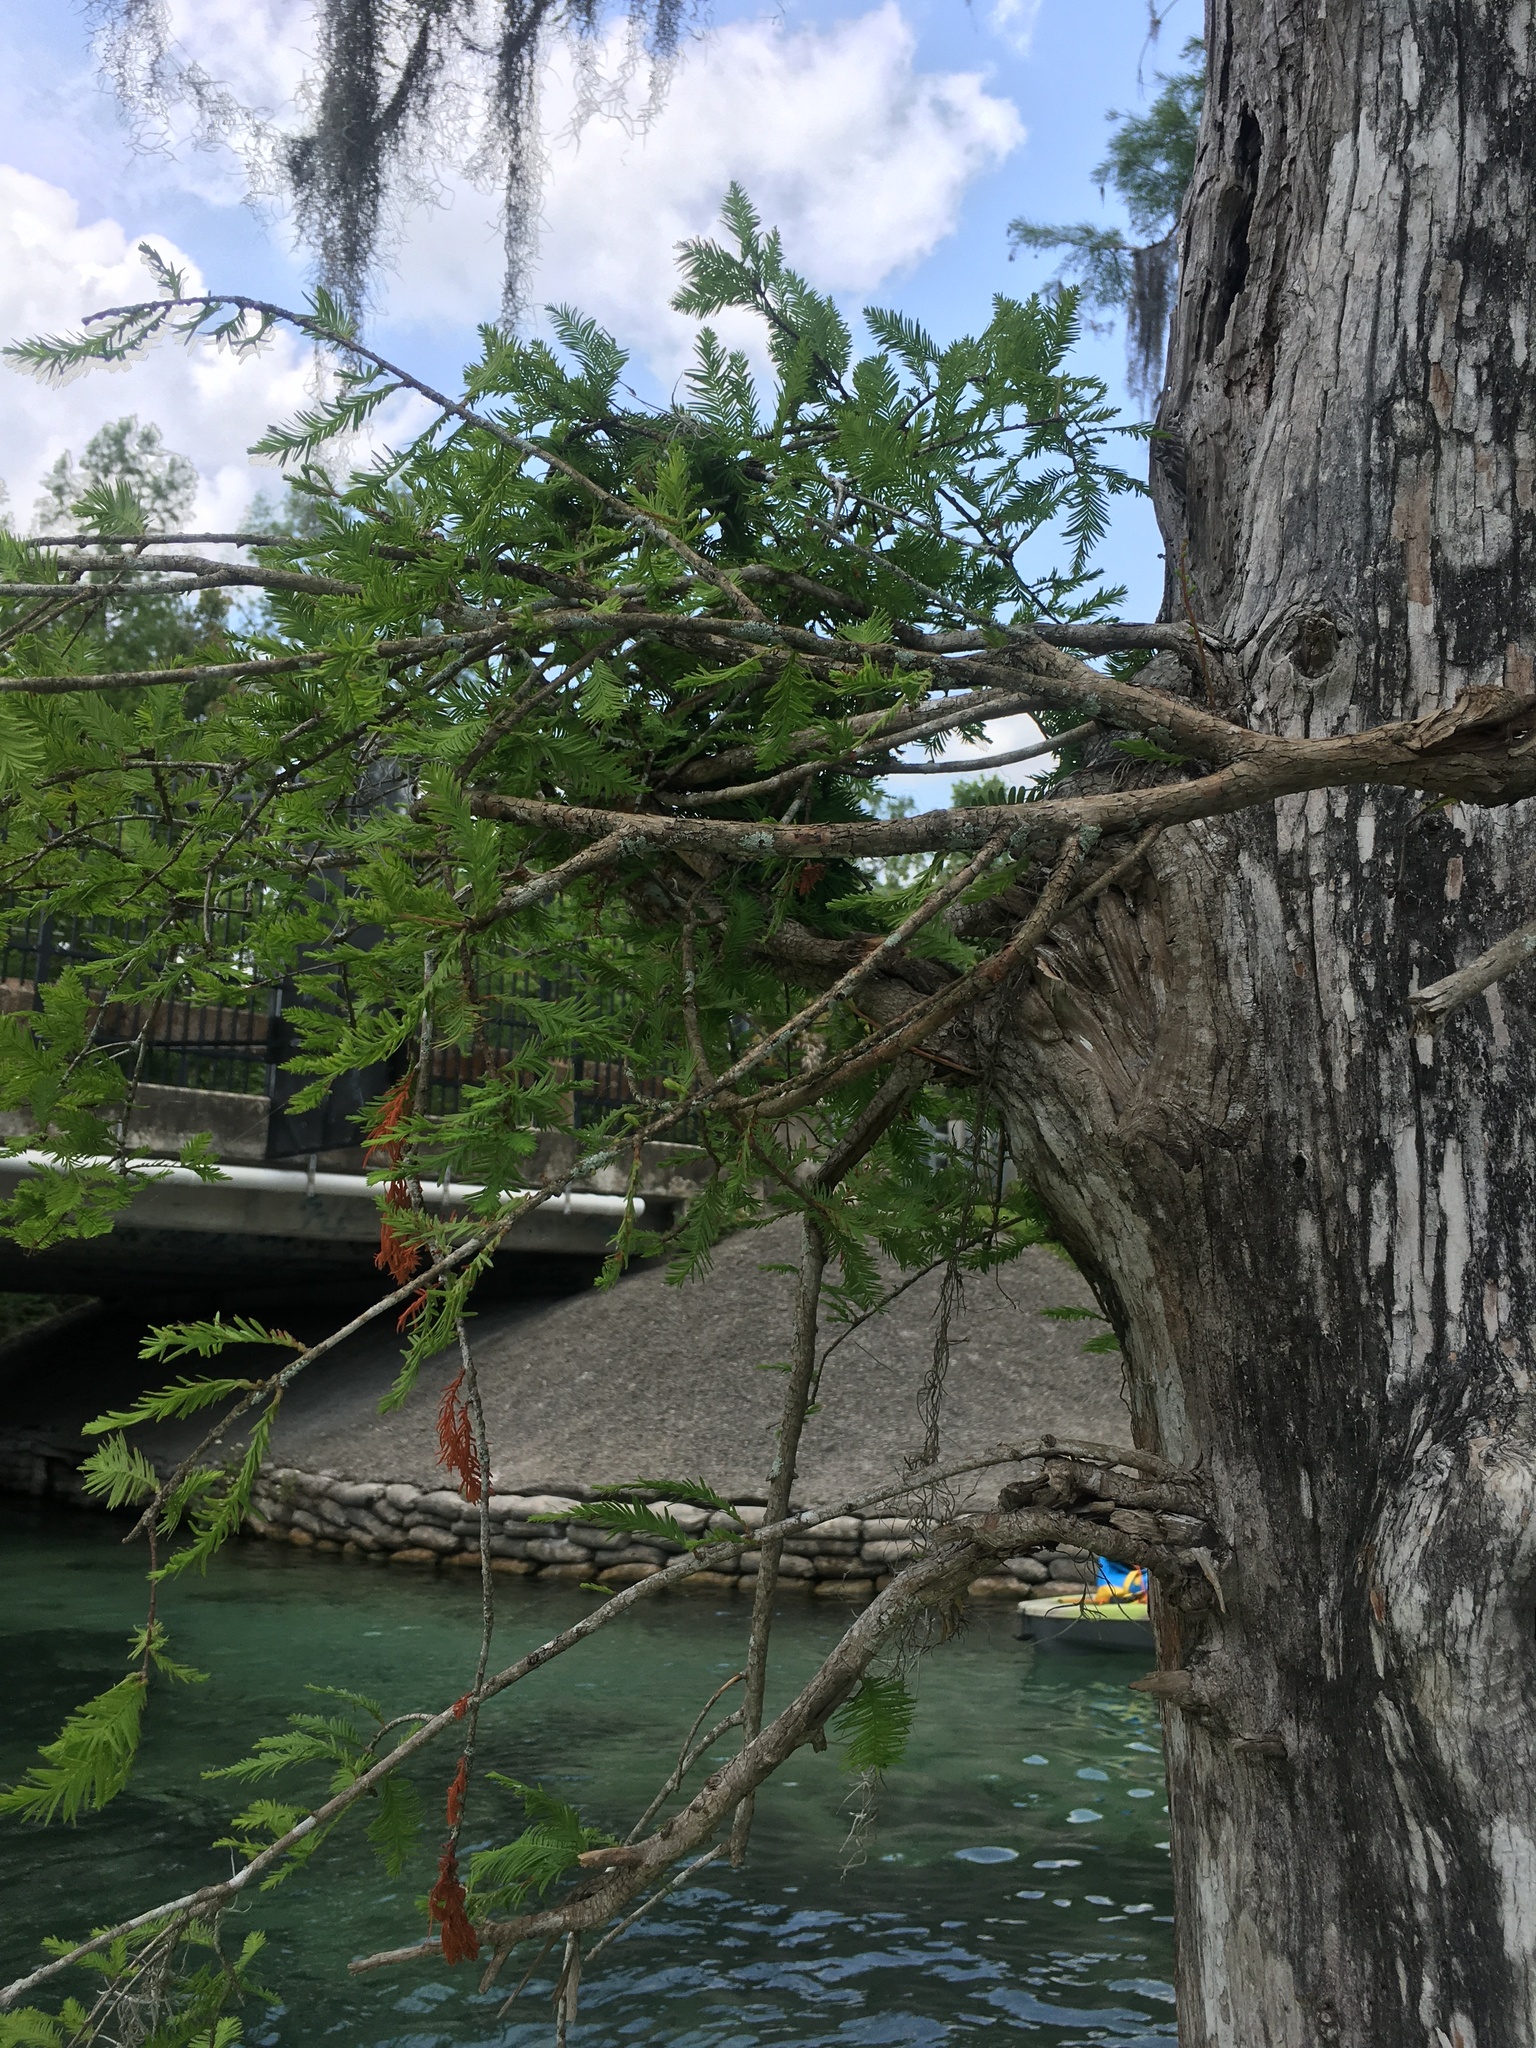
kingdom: Plantae
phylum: Tracheophyta
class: Pinopsida
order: Pinales
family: Cupressaceae
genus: Taxodium
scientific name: Taxodium distichum
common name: Bald cypress
